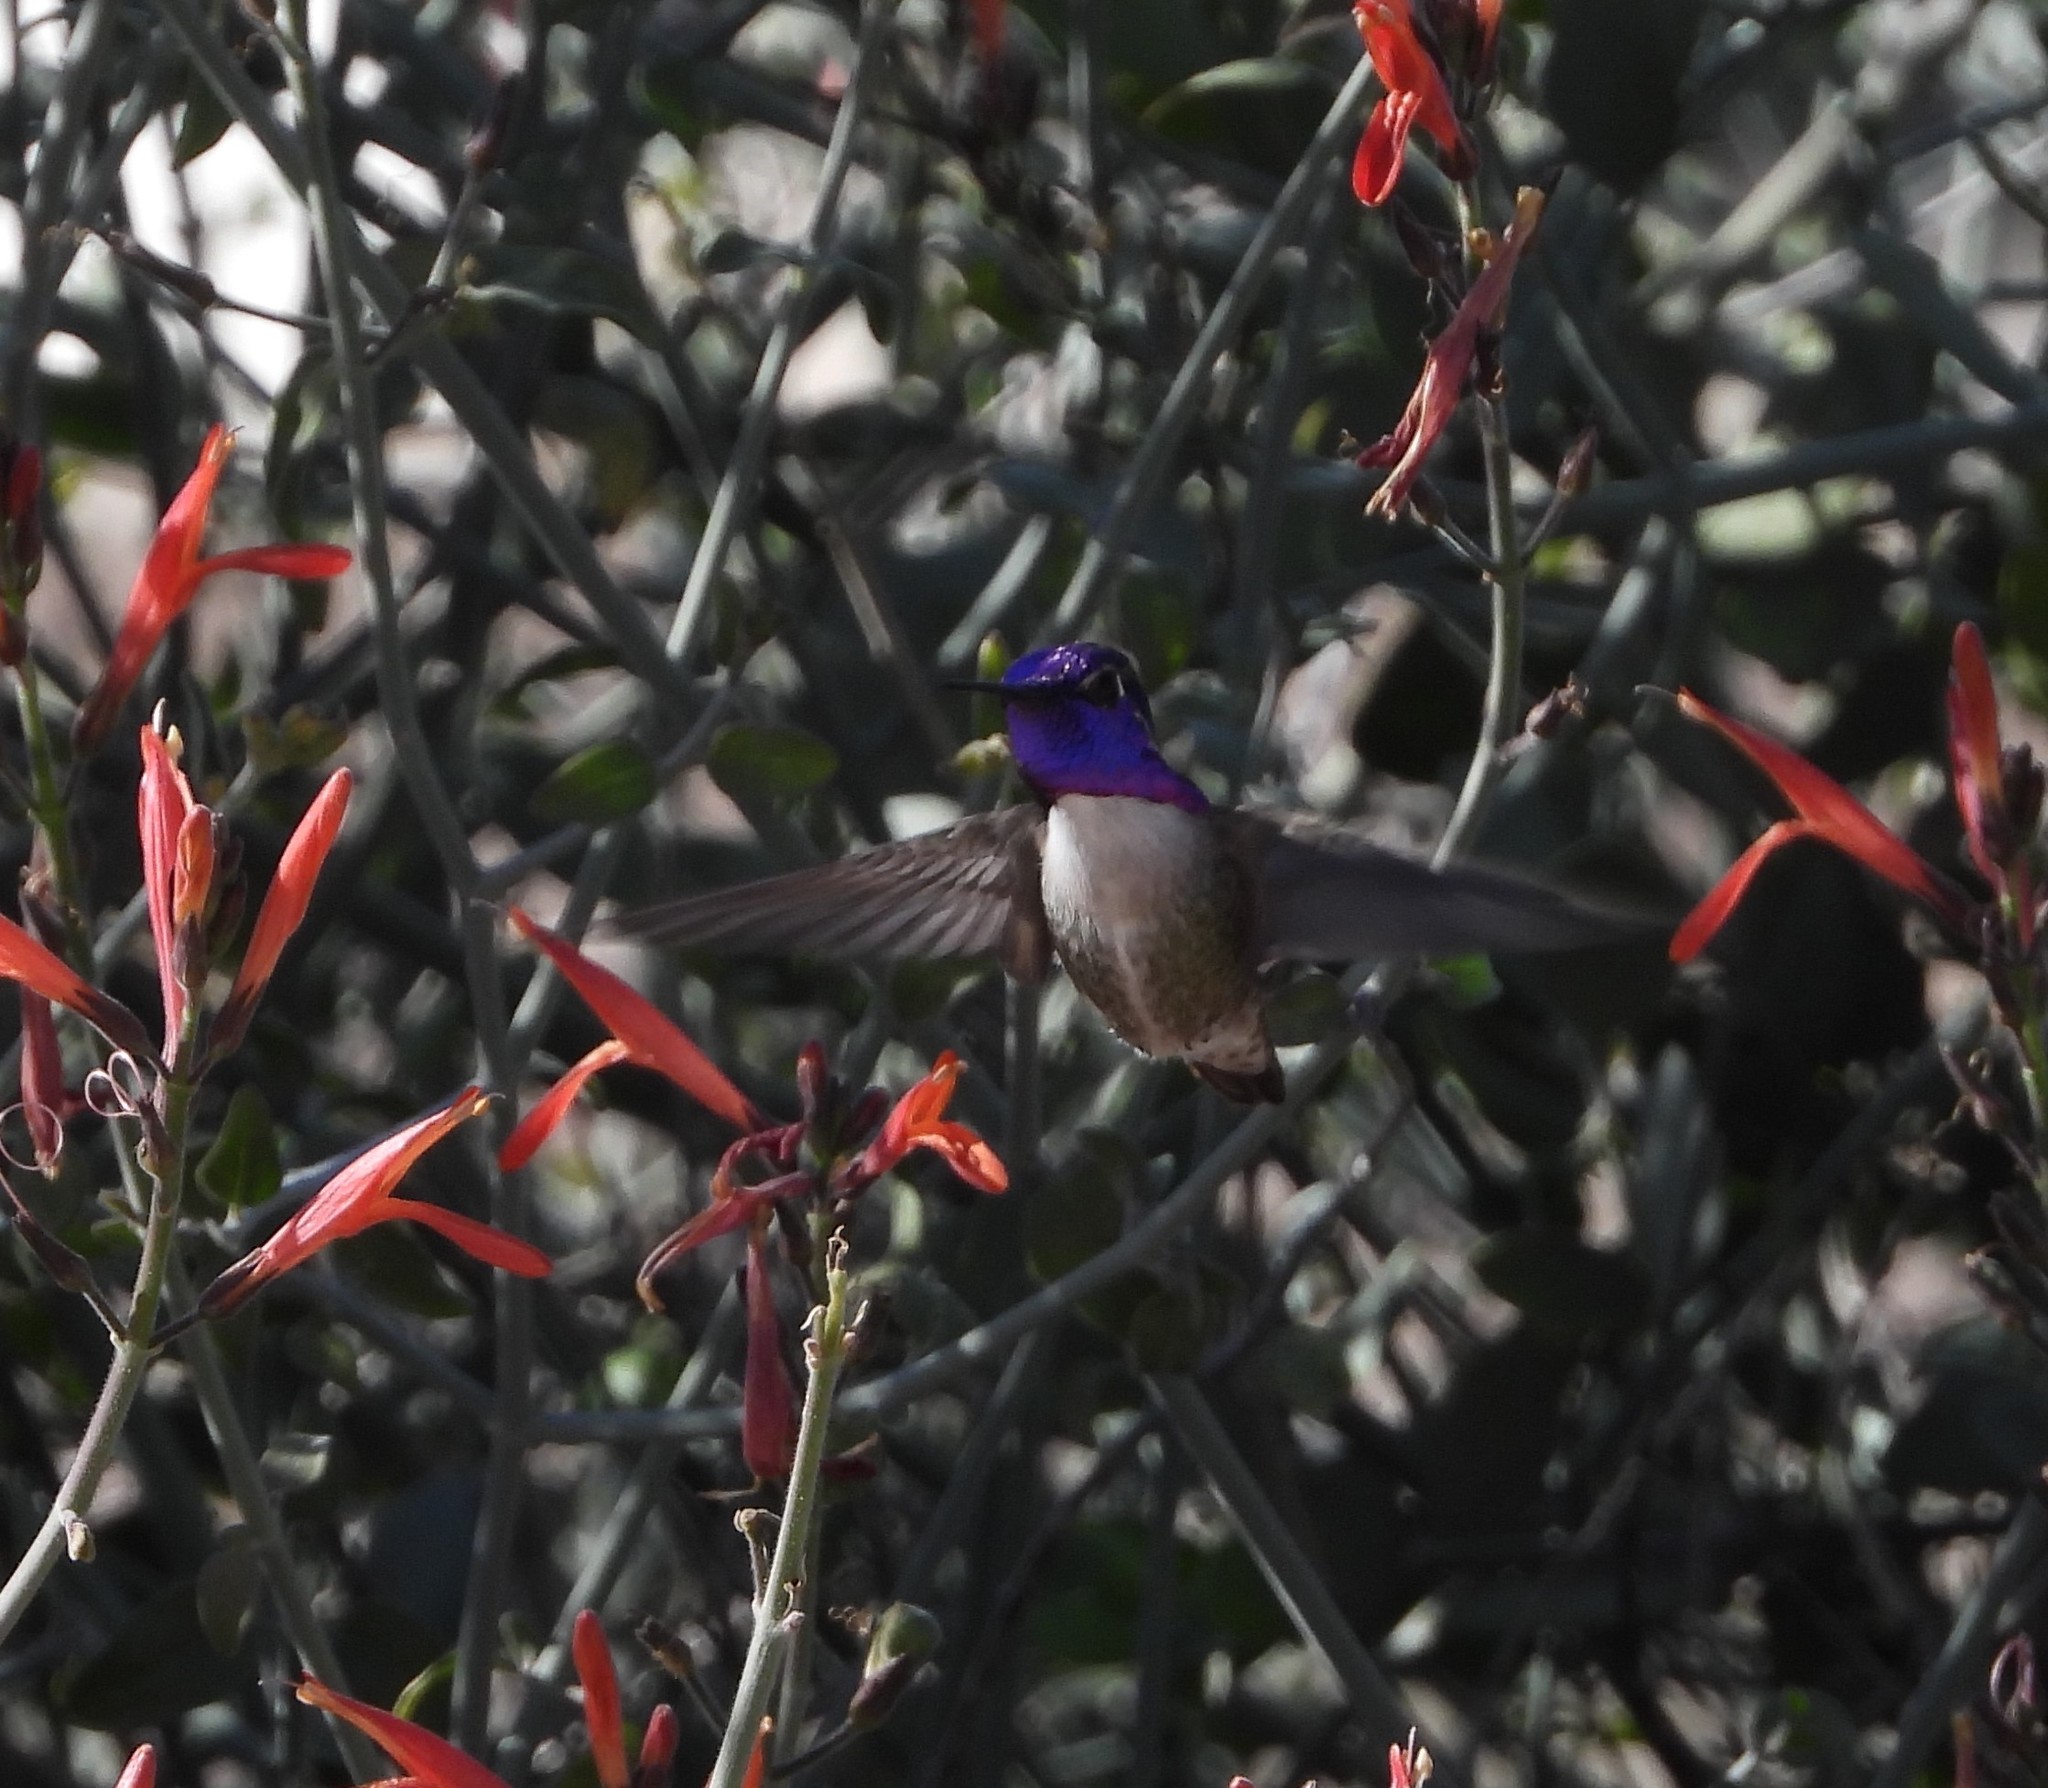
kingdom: Animalia
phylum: Chordata
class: Aves
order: Apodiformes
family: Trochilidae
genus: Calypte
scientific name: Calypte costae
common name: Costa's hummingbird
